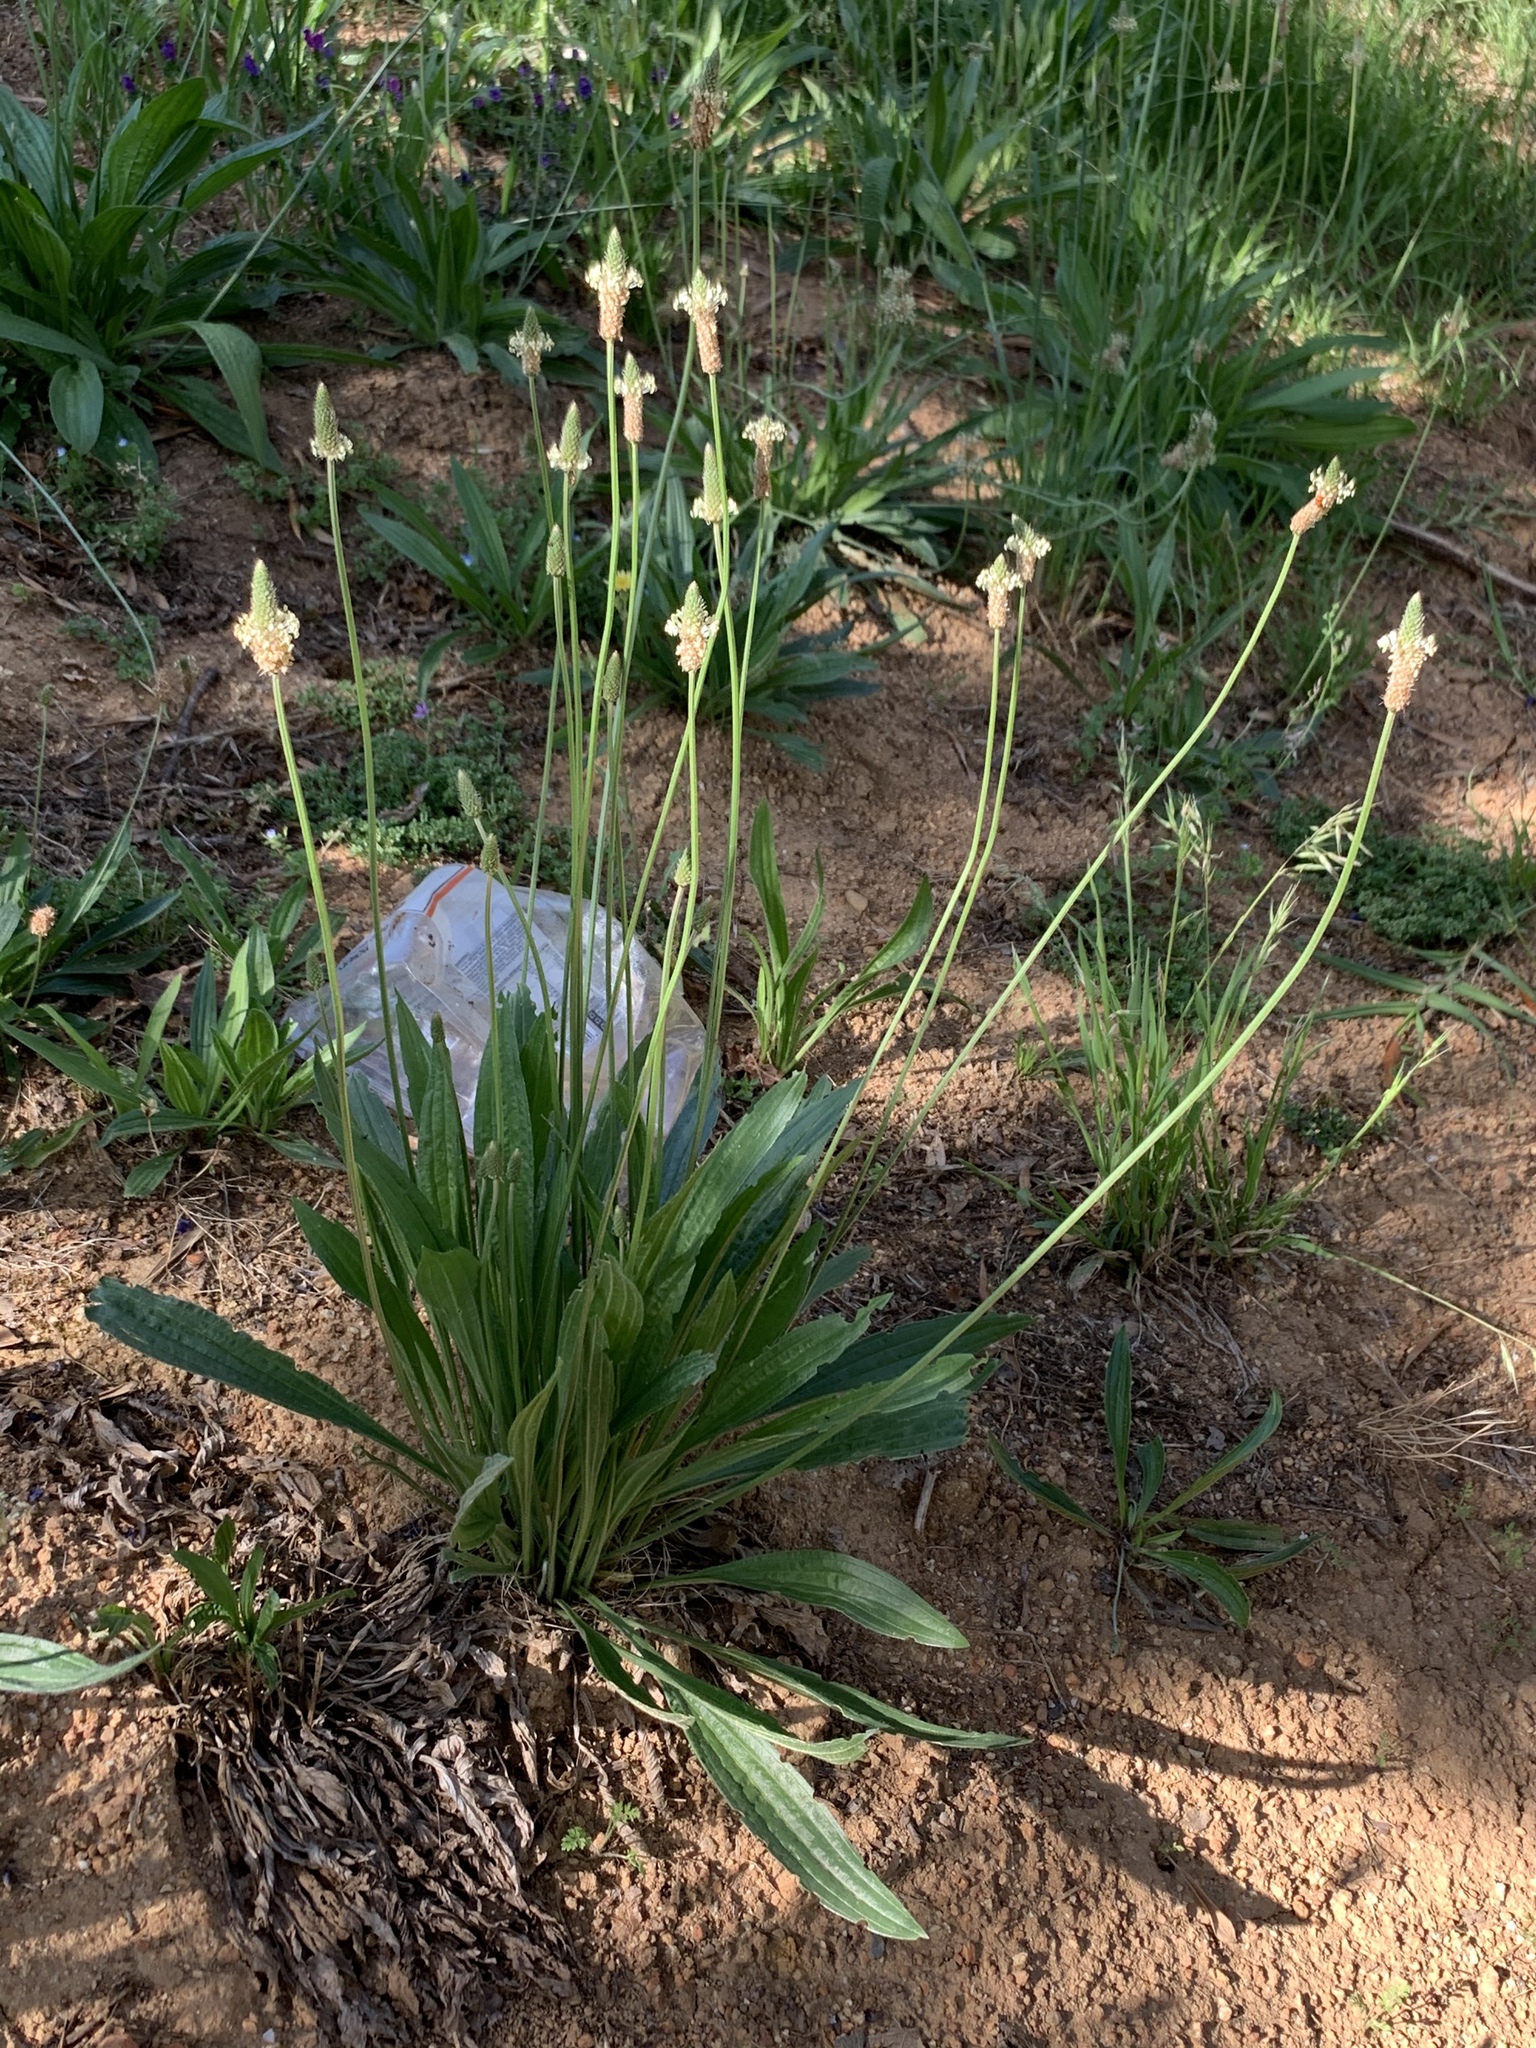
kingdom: Plantae
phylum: Tracheophyta
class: Magnoliopsida
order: Lamiales
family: Plantaginaceae
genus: Plantago
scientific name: Plantago lanceolata
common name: Ribwort plantain
